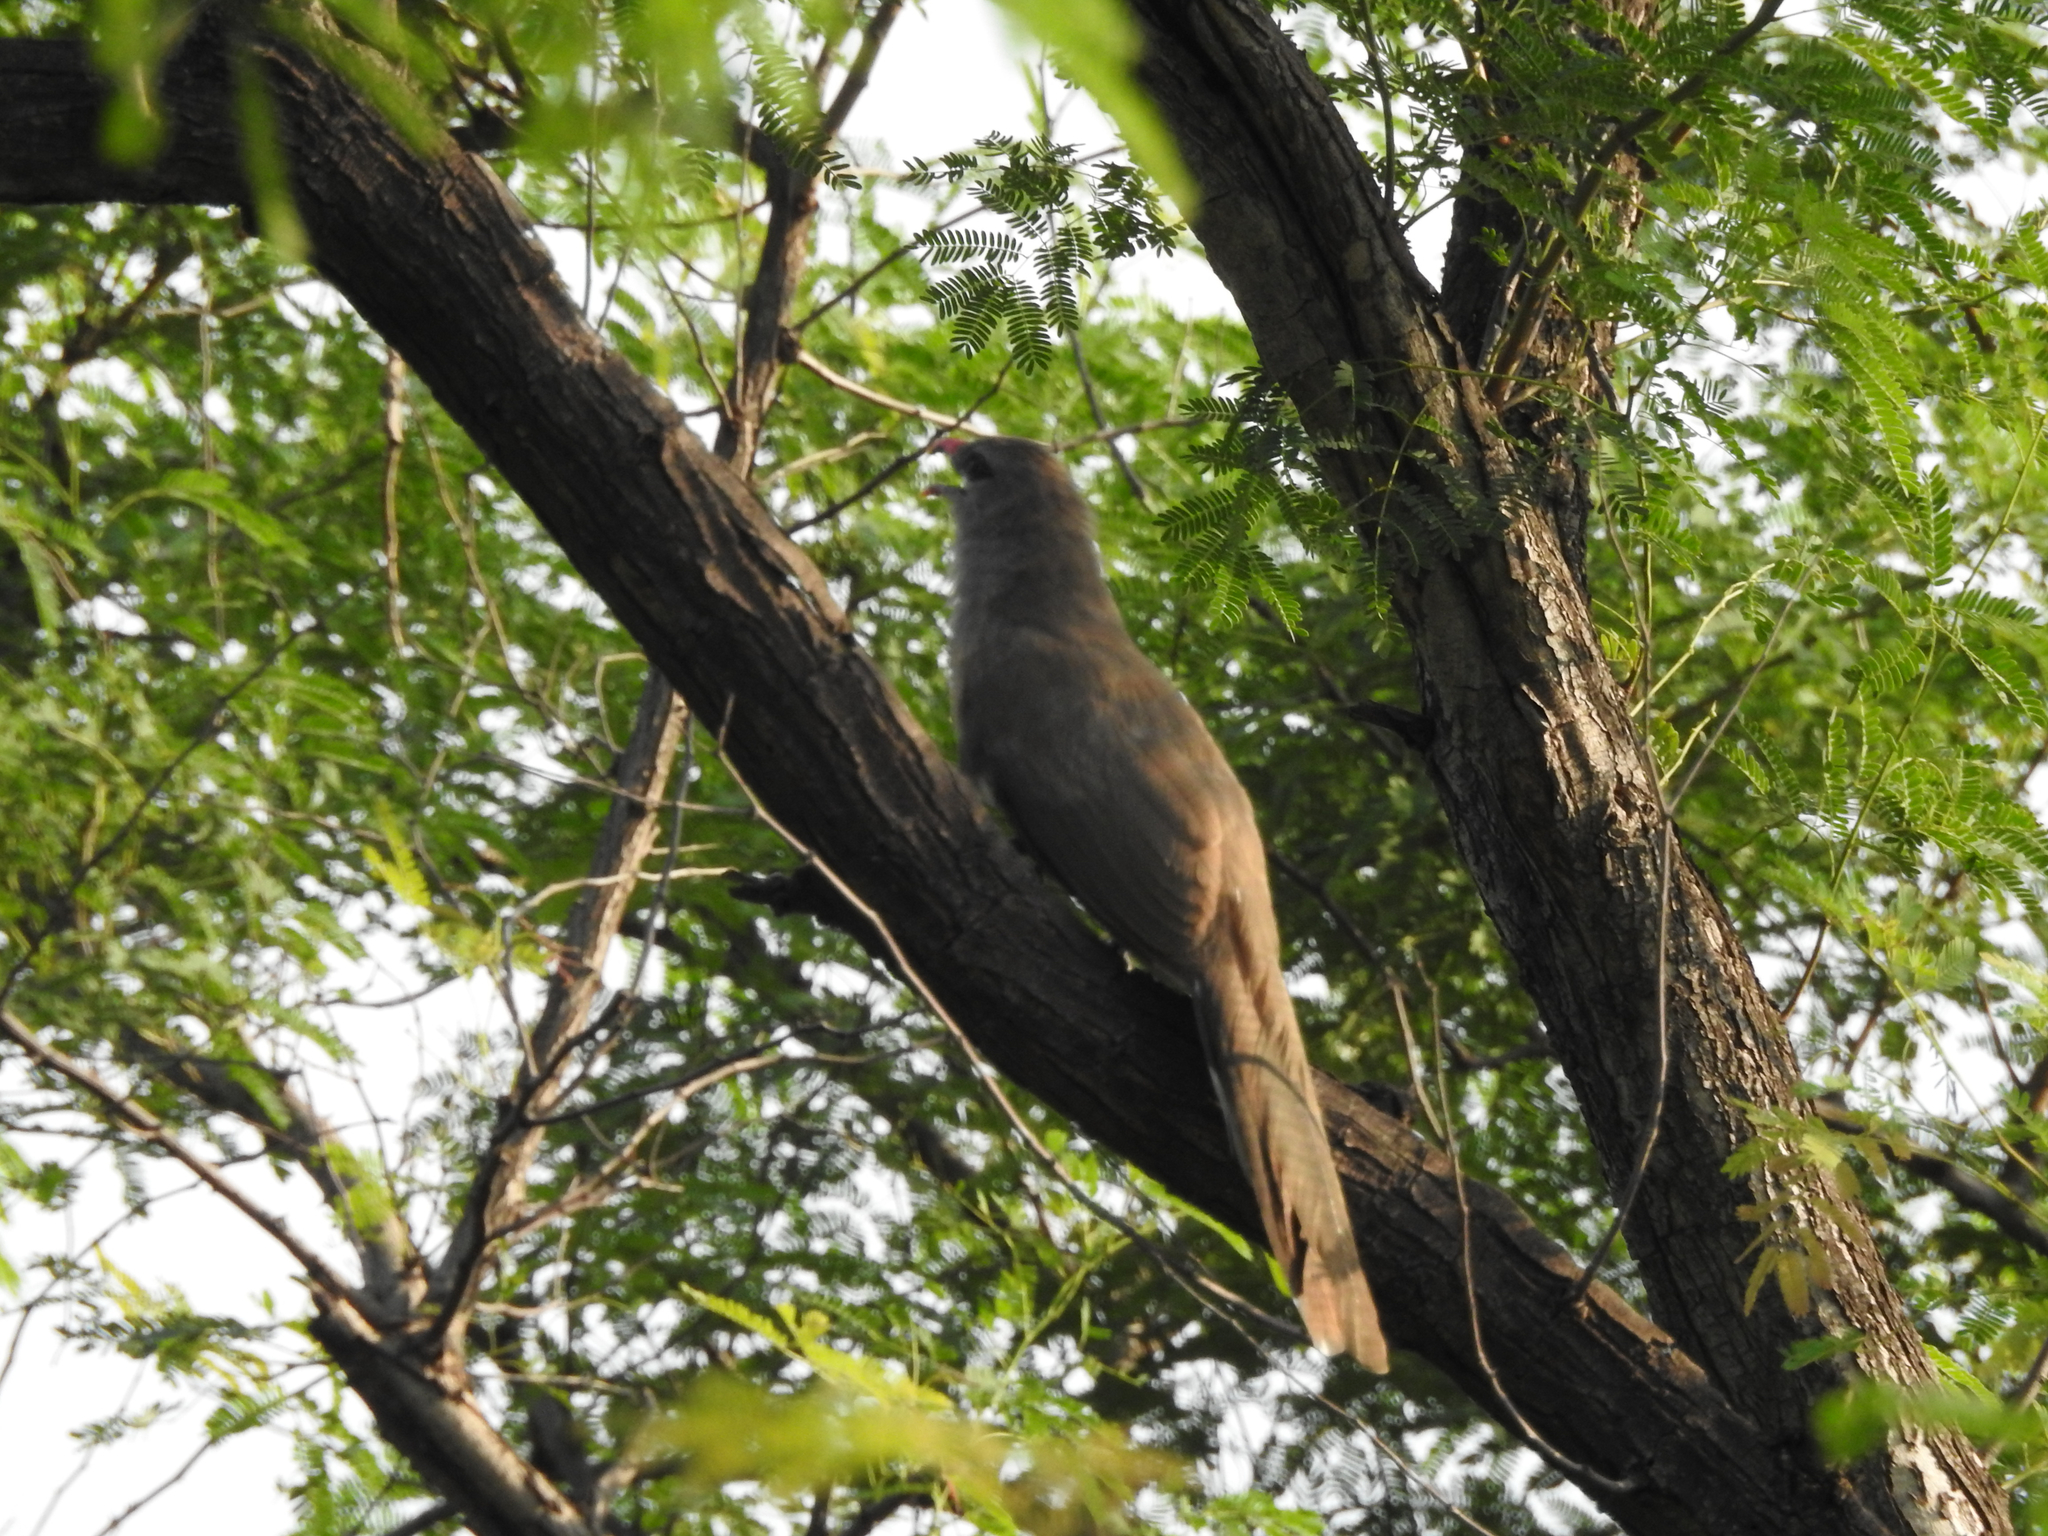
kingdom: Animalia
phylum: Chordata
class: Aves
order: Cuculiformes
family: Cuculidae
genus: Taccocua
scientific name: Taccocua leschenaultii
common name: Sirkeer malkoha
